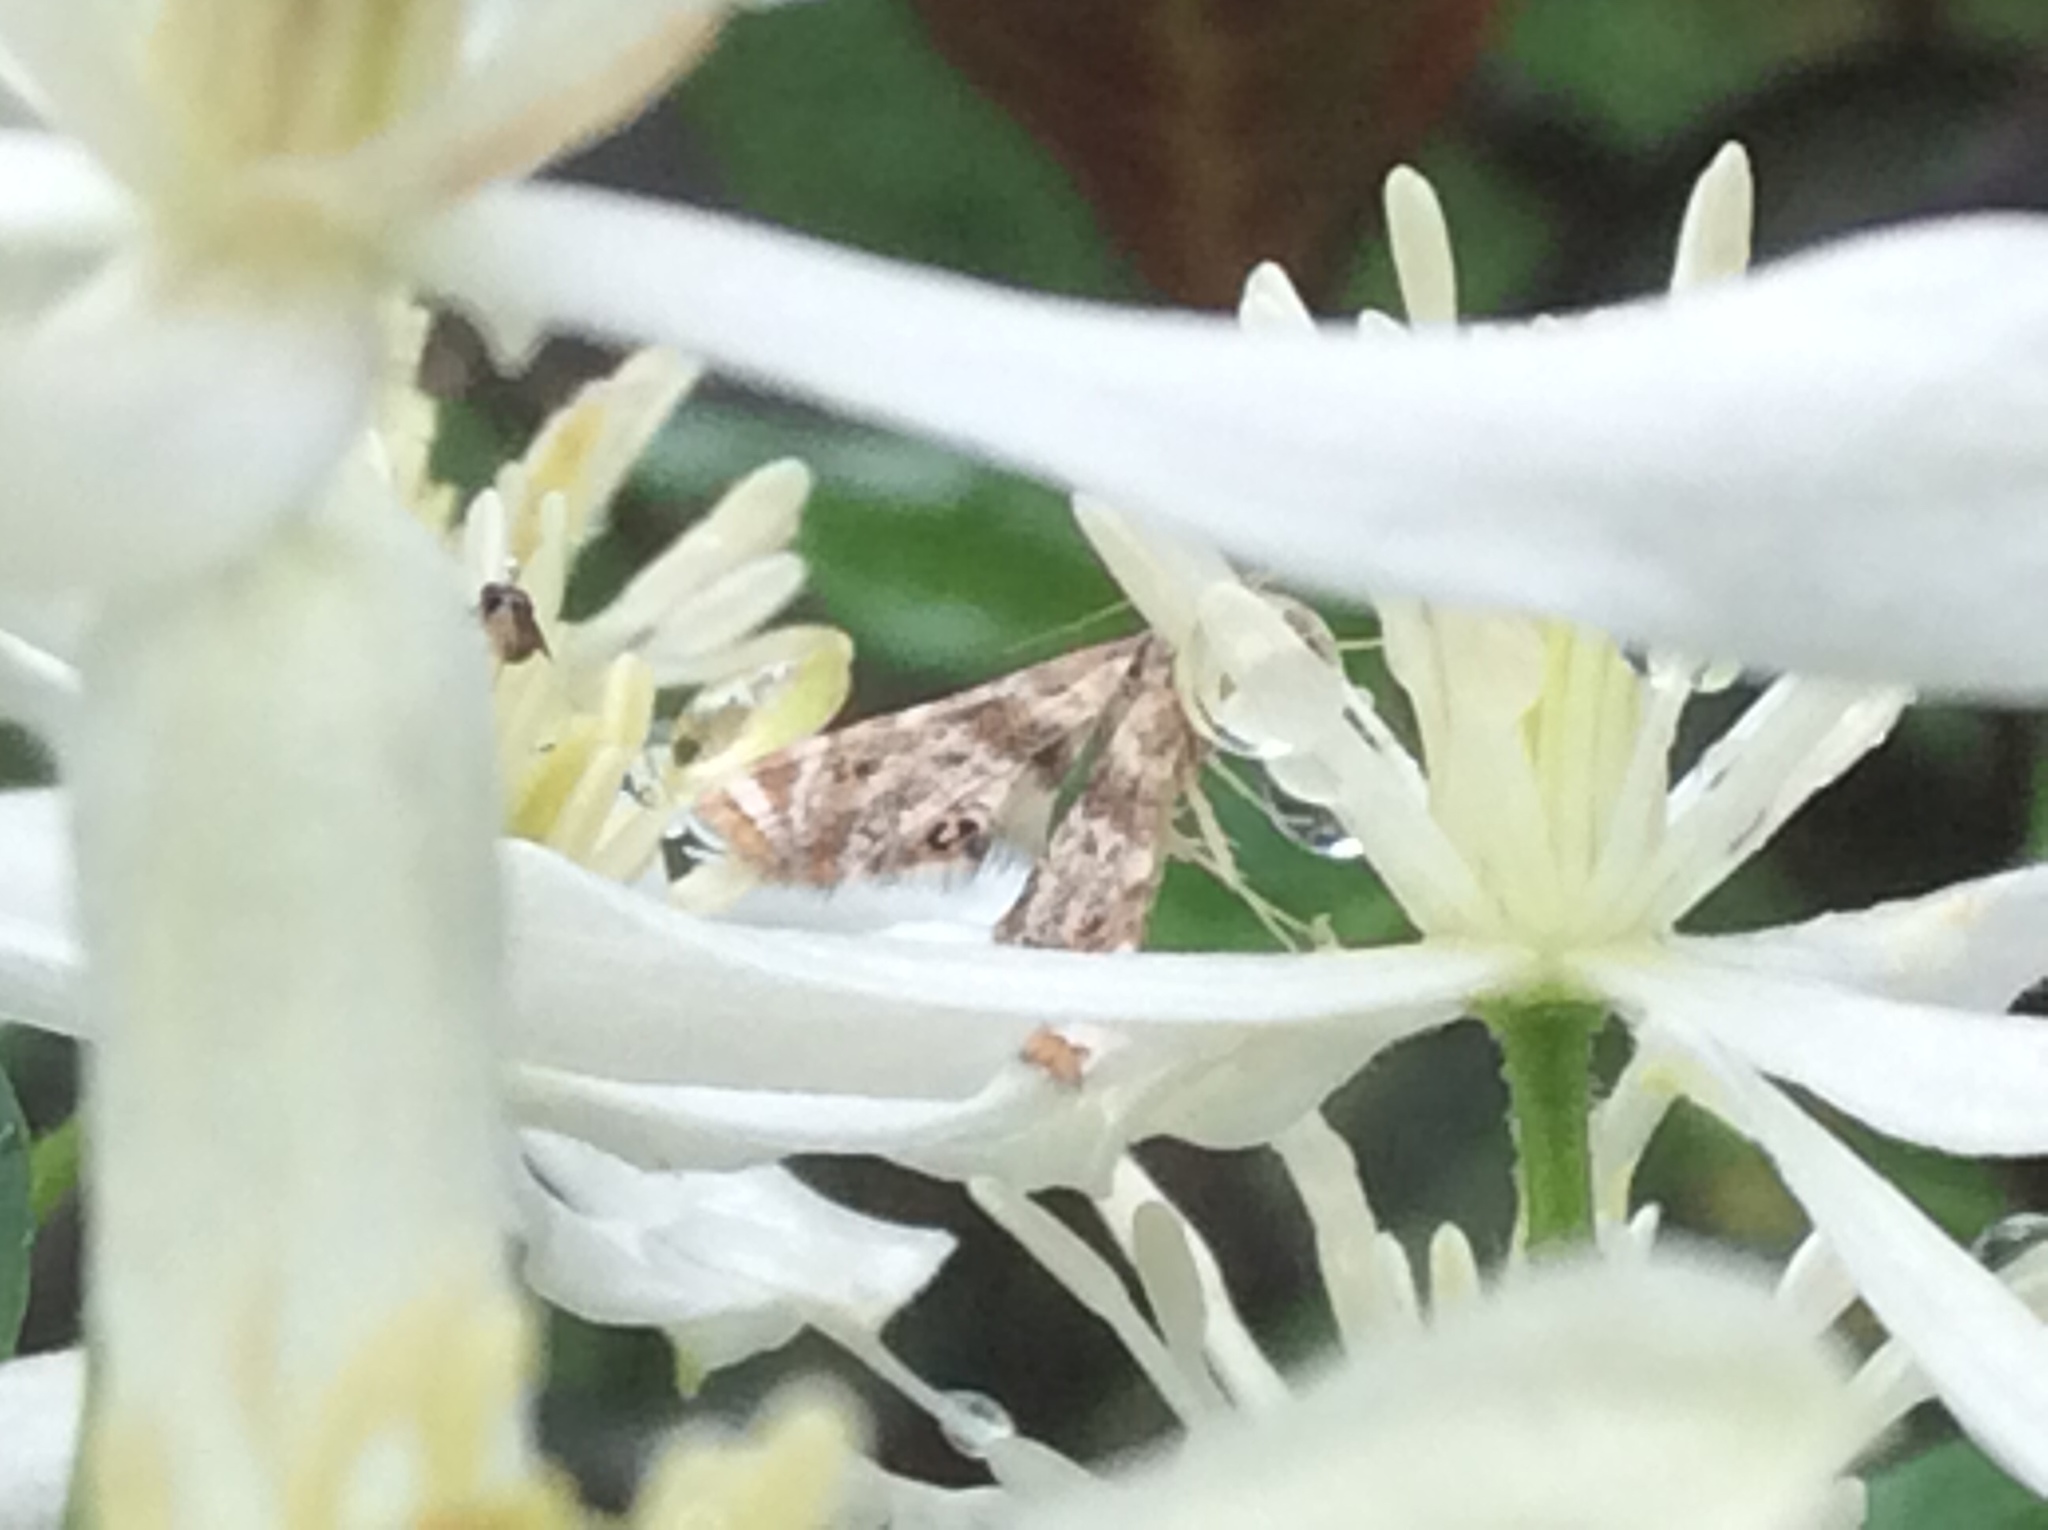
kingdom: Animalia
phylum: Arthropoda
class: Insecta
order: Lepidoptera
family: Crambidae
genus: Petrophila
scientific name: Petrophila fulicalis
